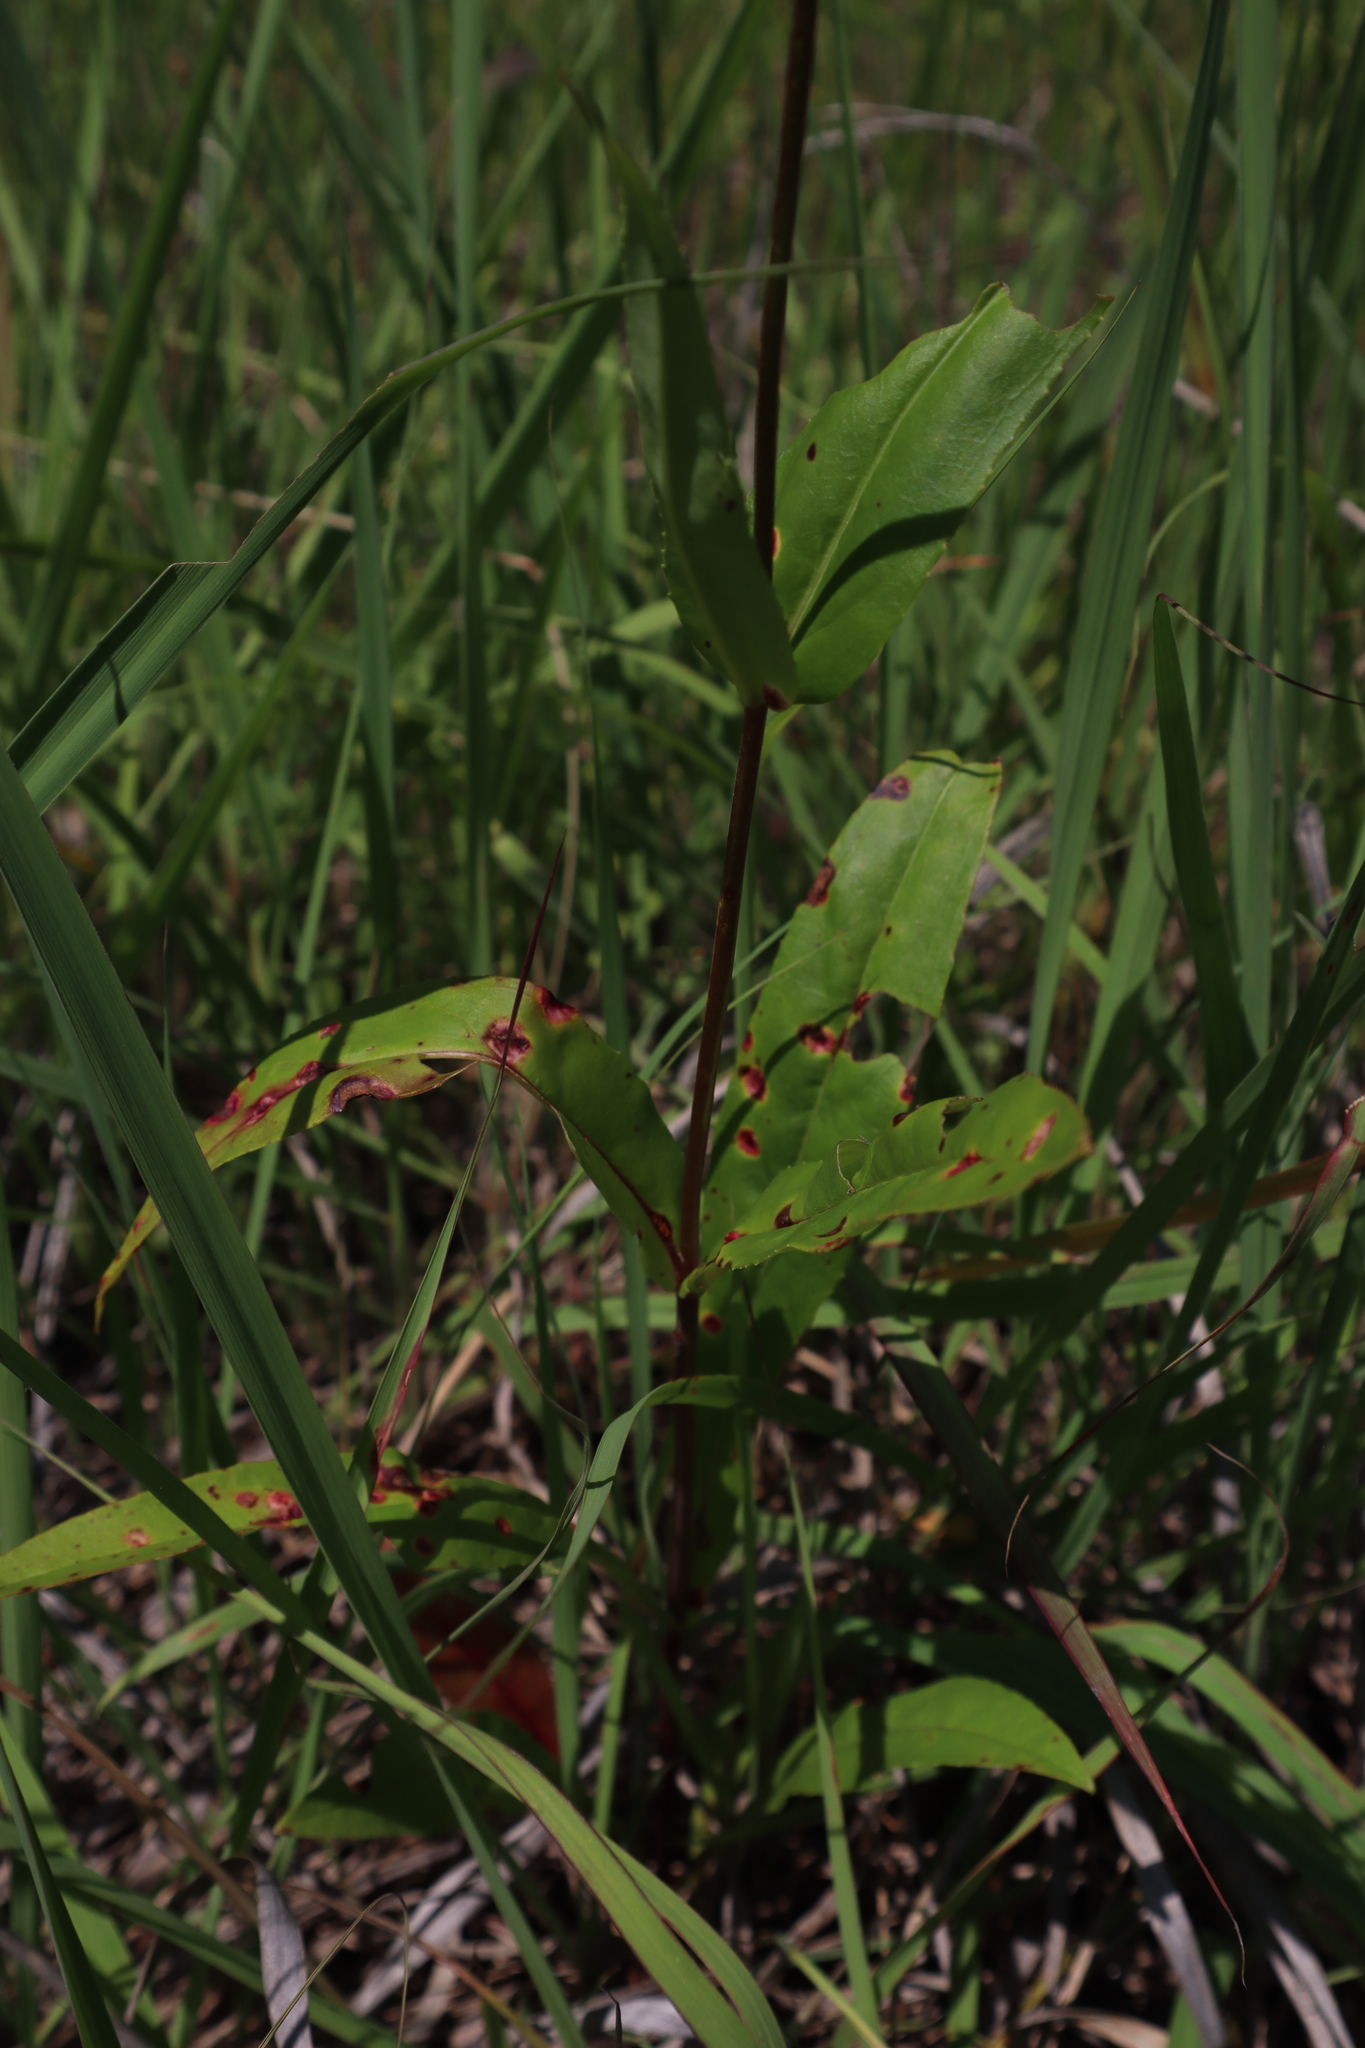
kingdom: Plantae
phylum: Tracheophyta
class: Magnoliopsida
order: Lamiales
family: Plantaginaceae
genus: Penstemon
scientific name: Penstemon digitalis
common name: Foxglove beardtongue
